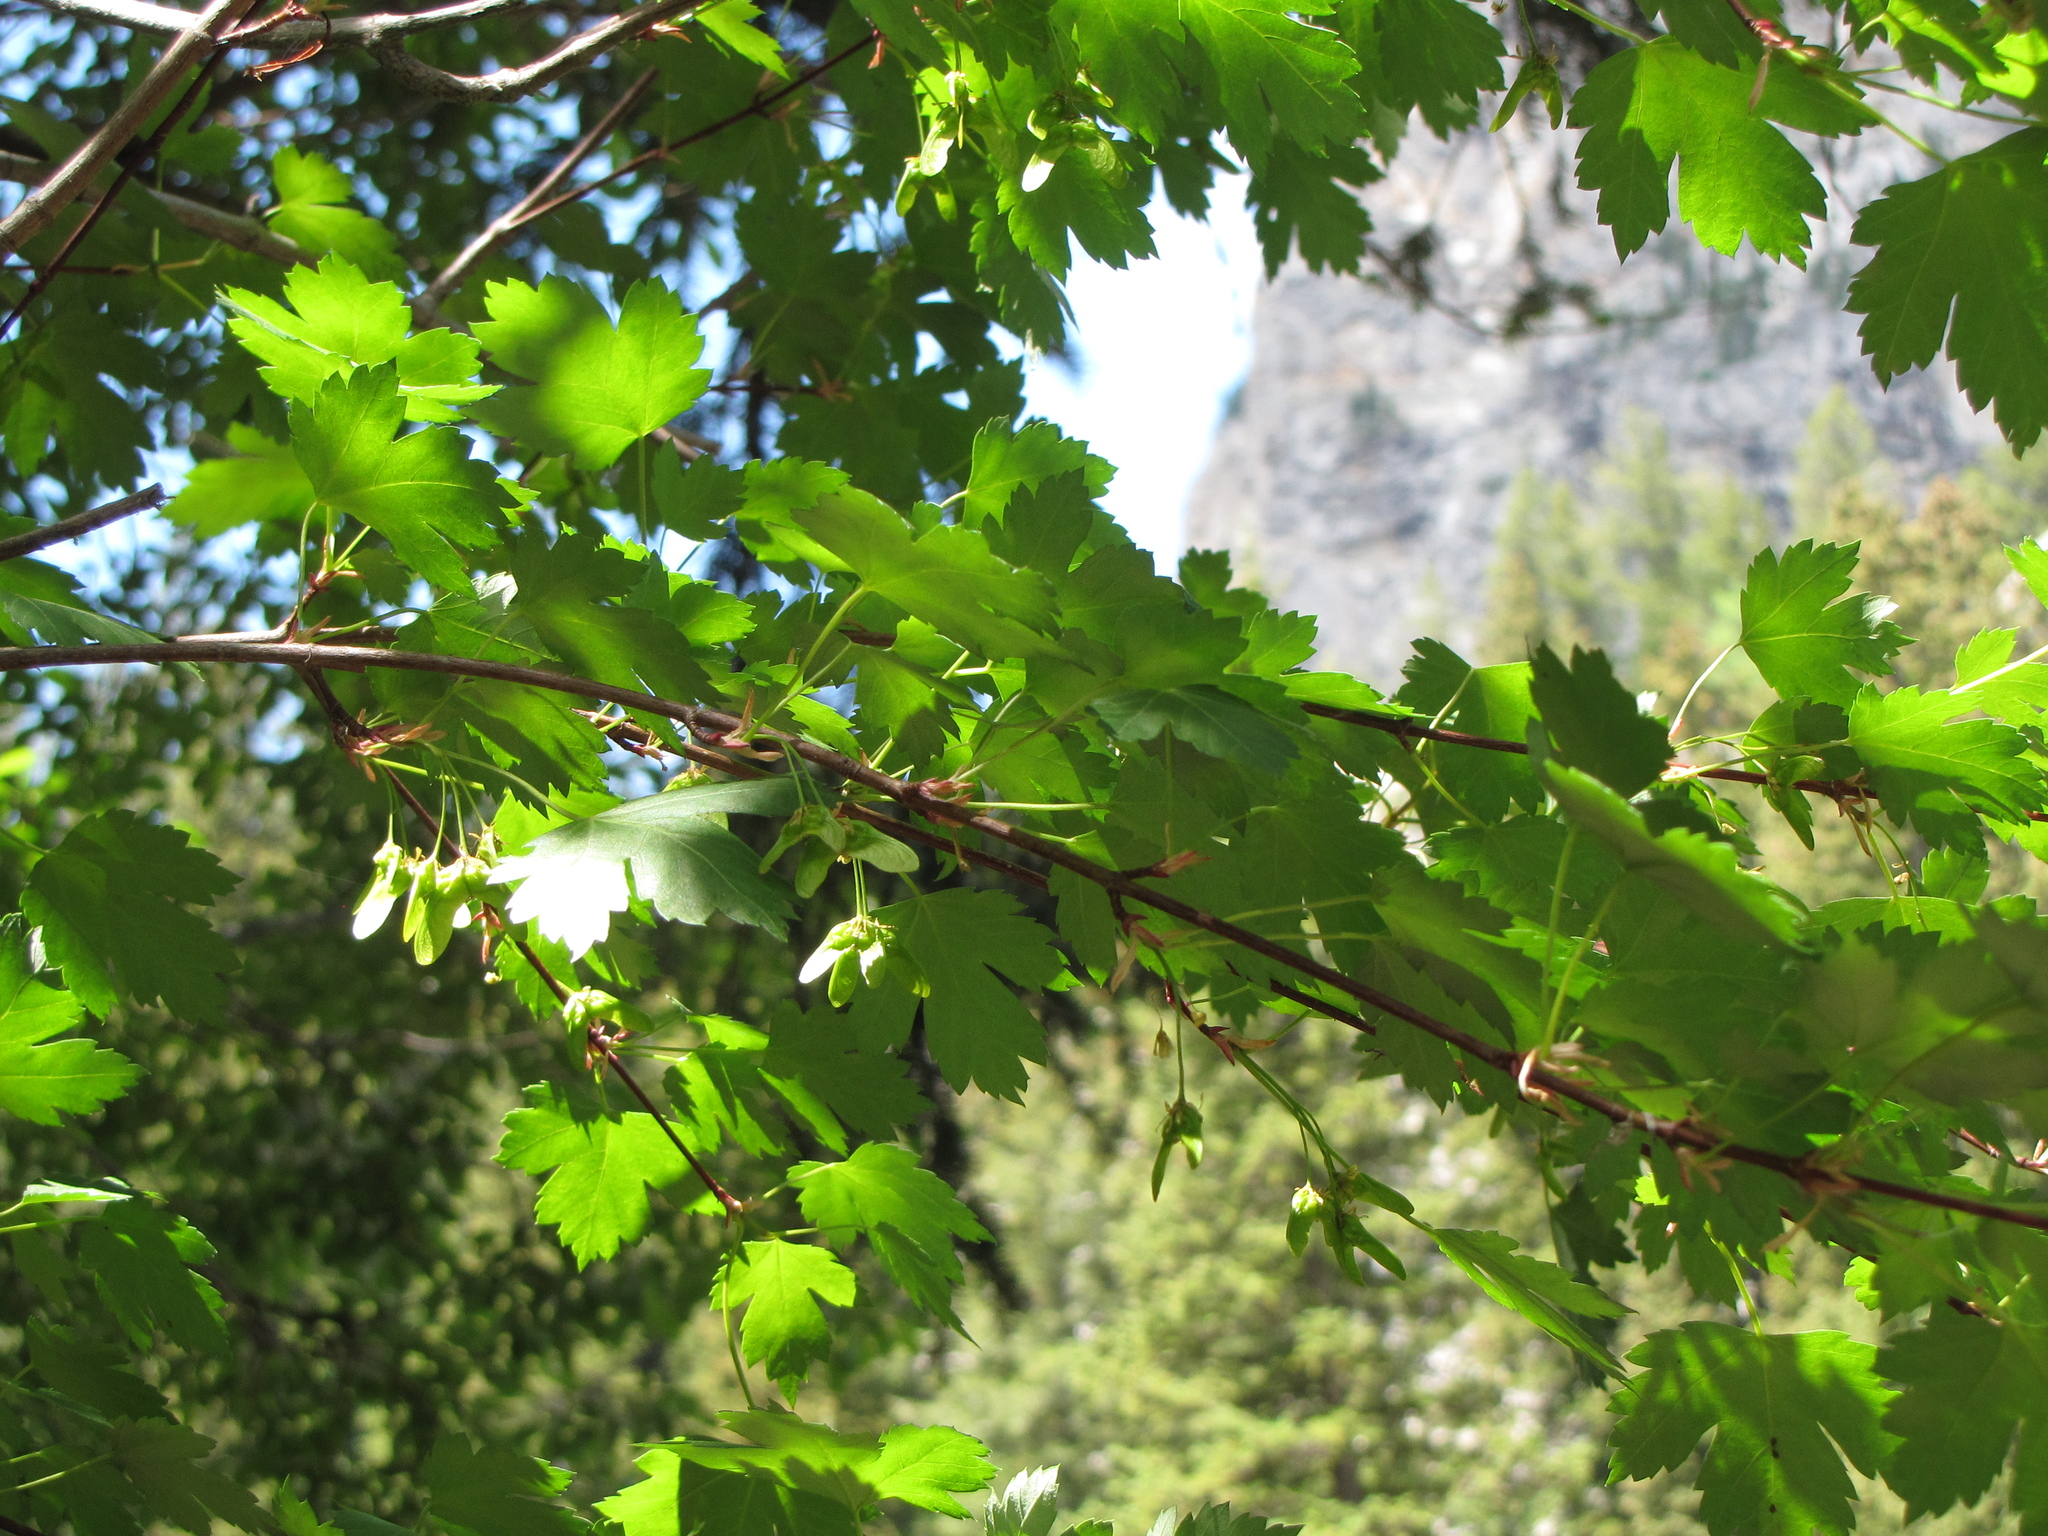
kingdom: Plantae
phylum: Tracheophyta
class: Magnoliopsida
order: Sapindales
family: Sapindaceae
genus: Acer
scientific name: Acer glabrum
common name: Rocky mountain maple
